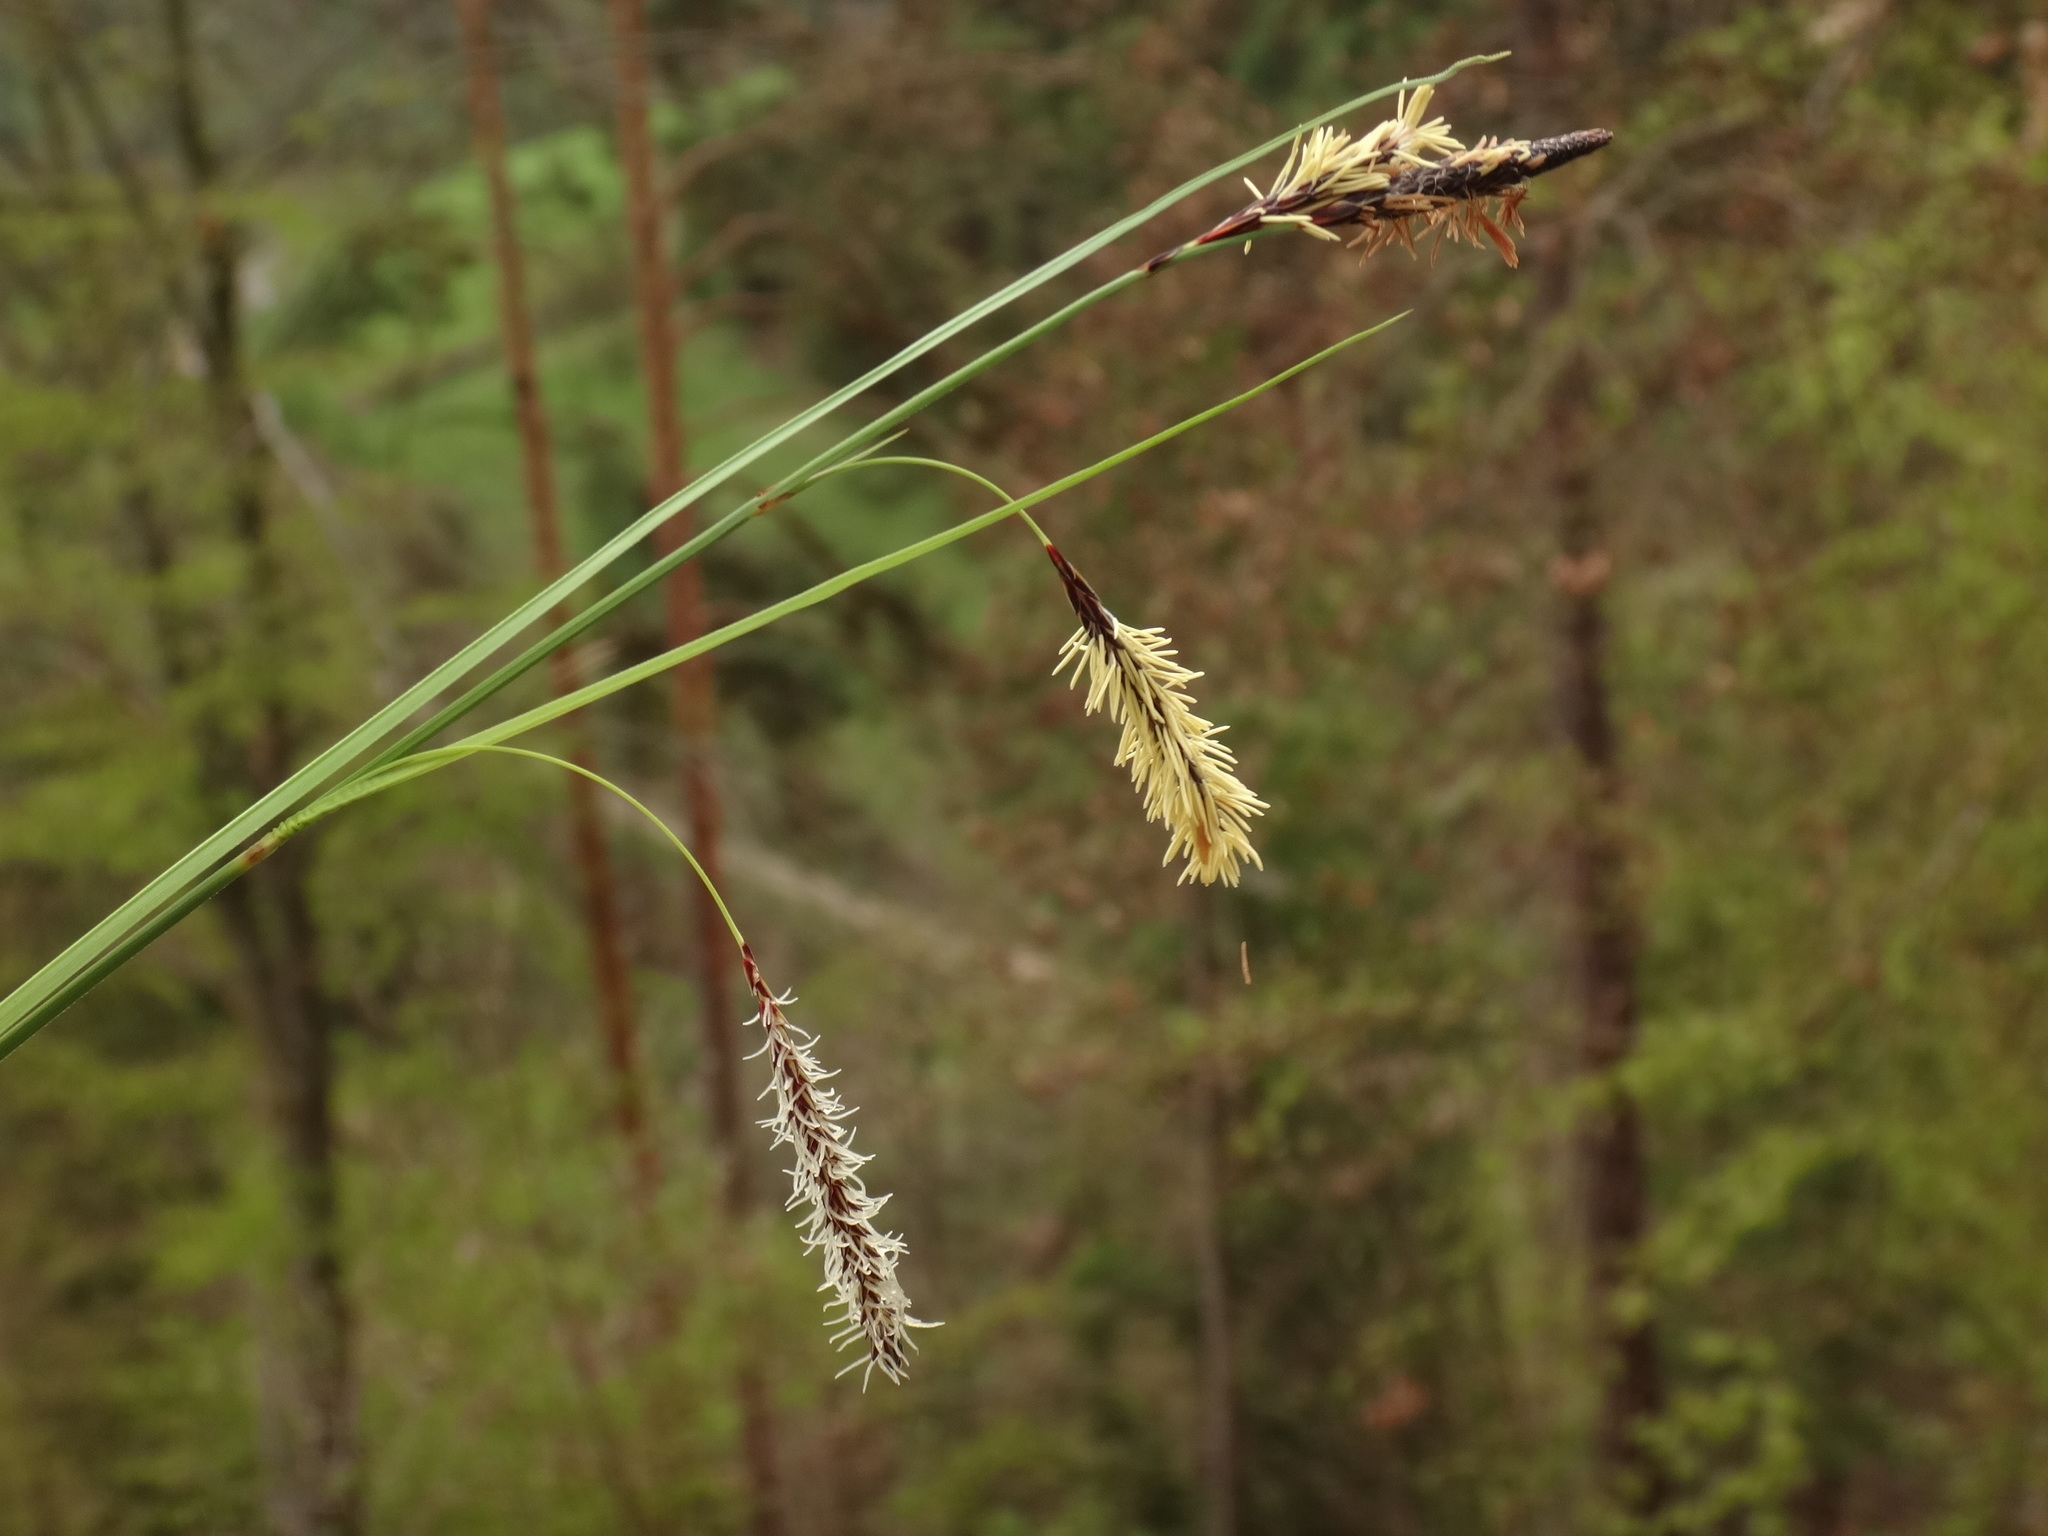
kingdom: Plantae
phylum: Tracheophyta
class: Liliopsida
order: Poales
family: Cyperaceae
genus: Carex
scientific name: Carex flacca
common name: Glaucous sedge
